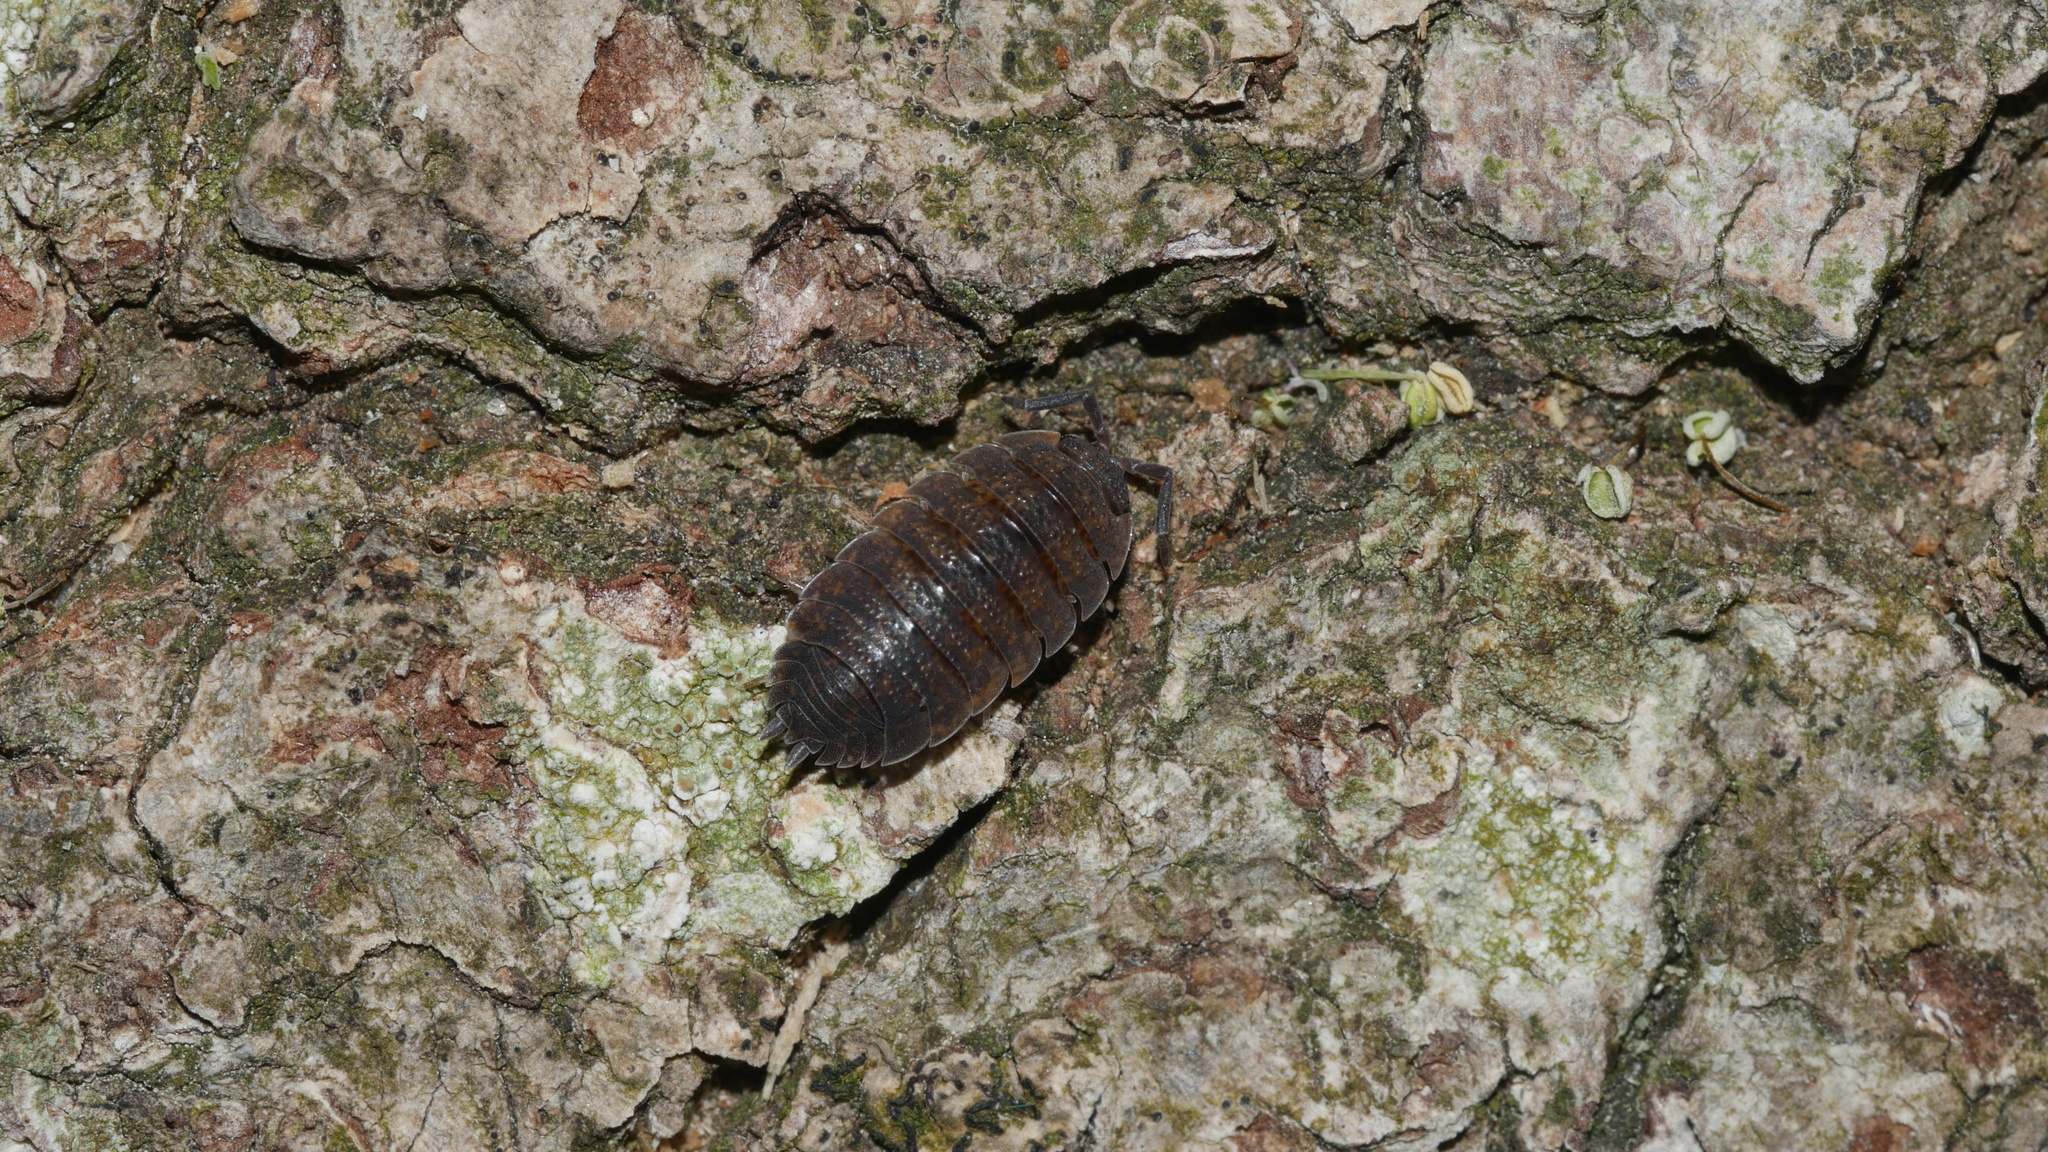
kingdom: Animalia
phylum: Arthropoda
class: Malacostraca
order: Isopoda
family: Porcellionidae
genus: Porcellio
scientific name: Porcellio scaber
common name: Common rough woodlouse
